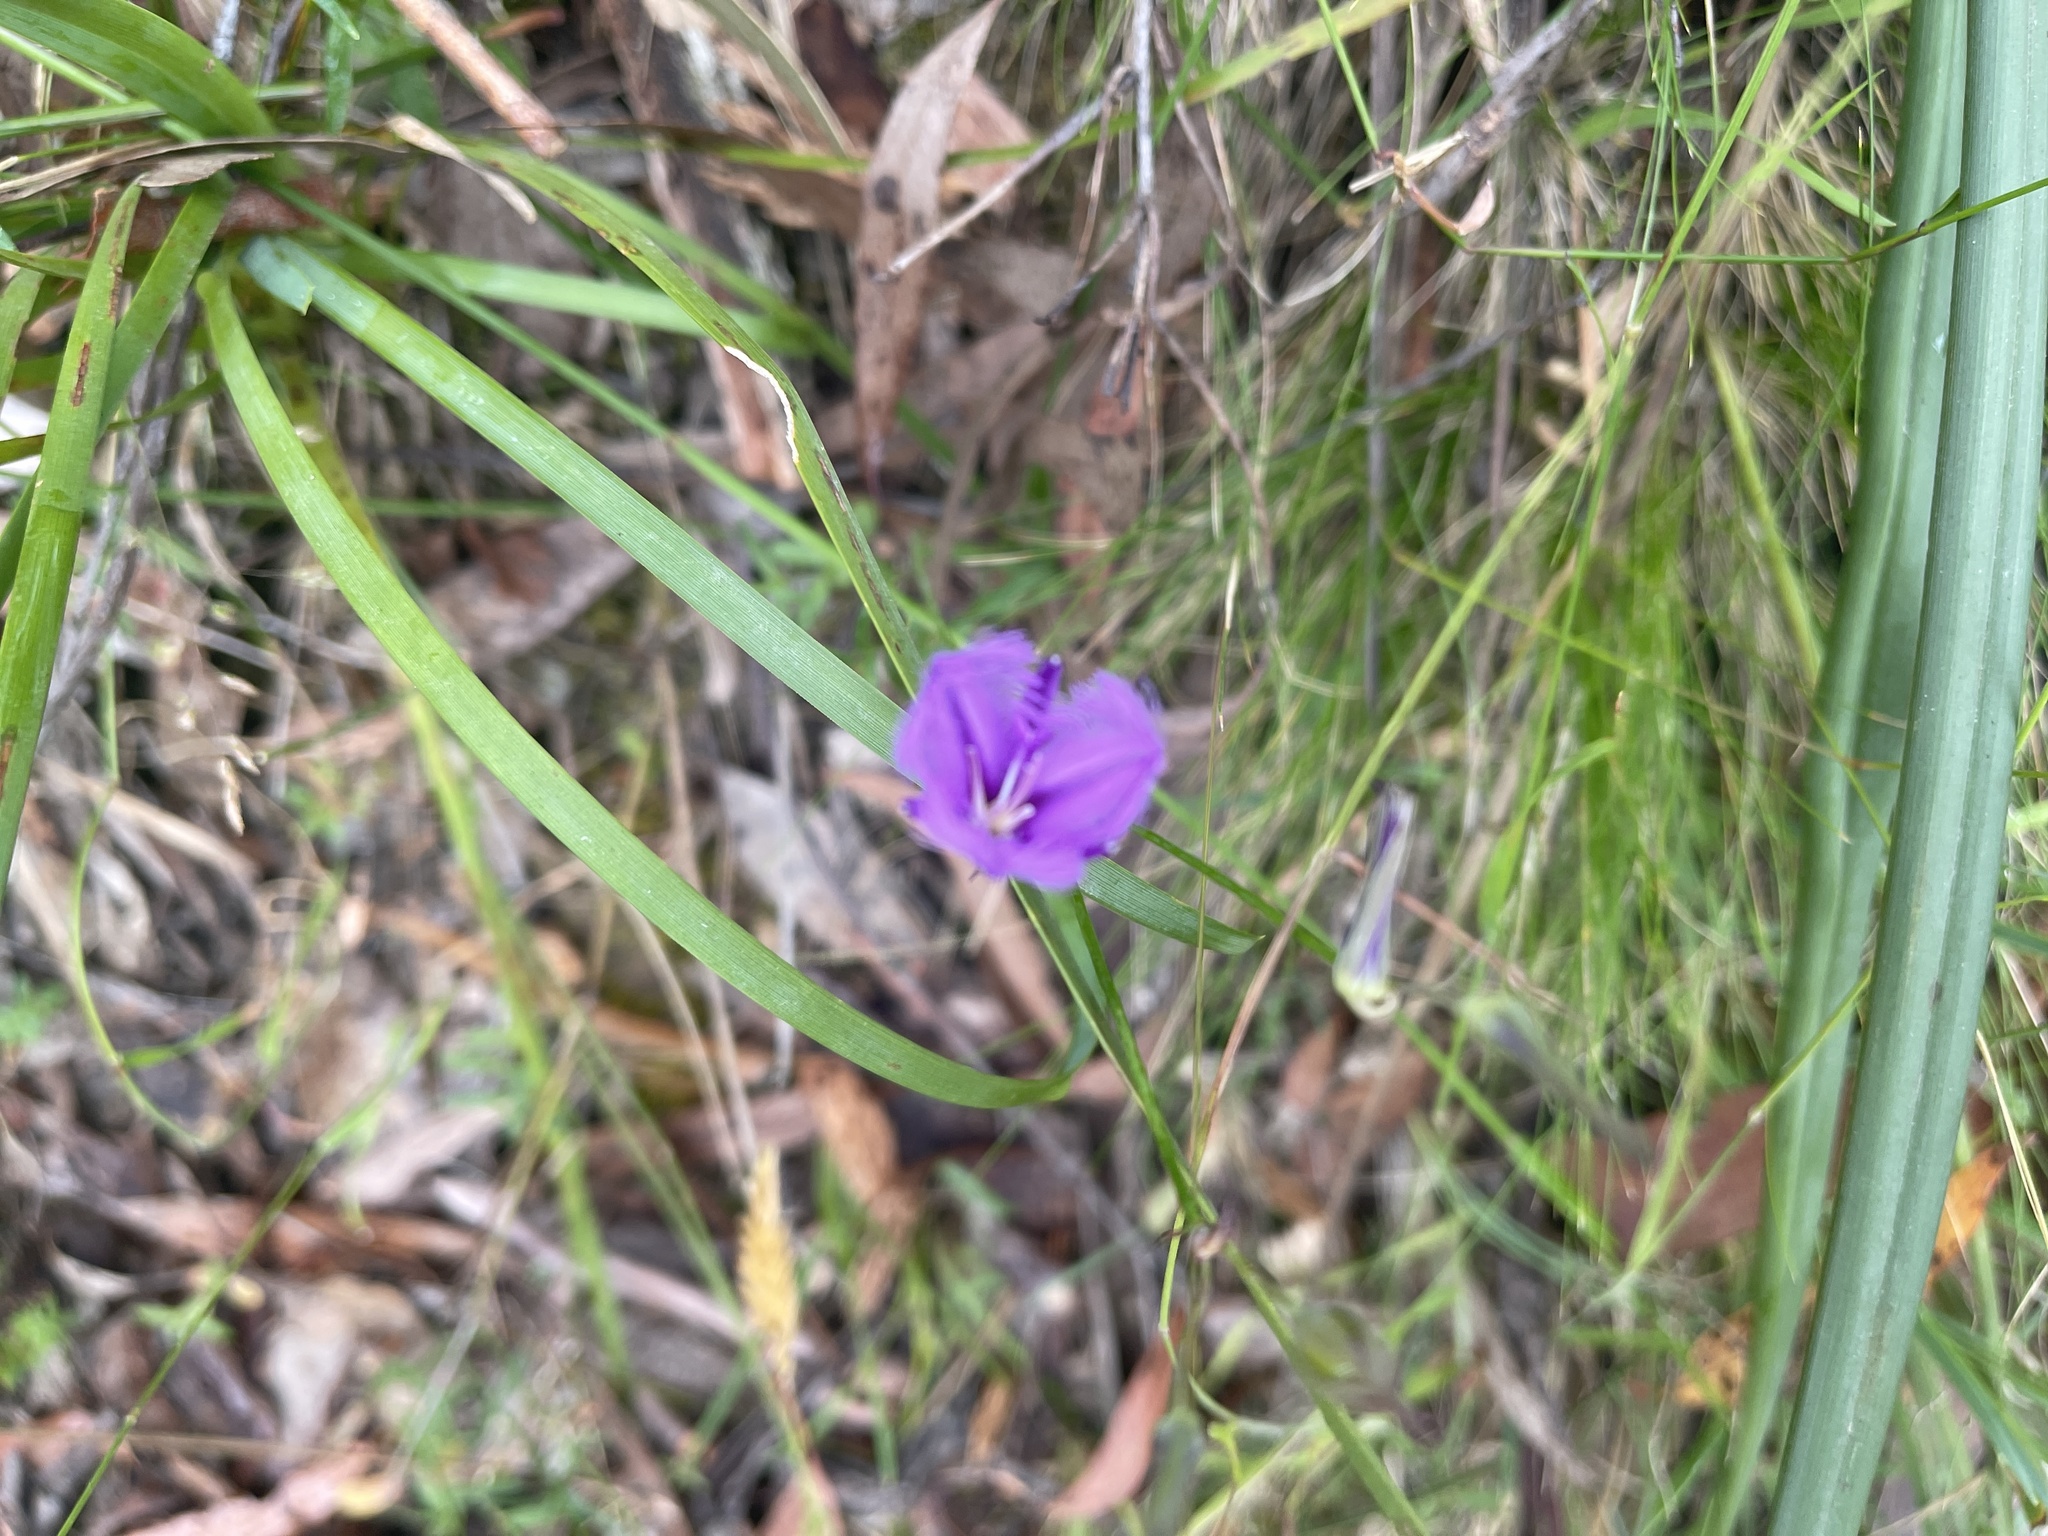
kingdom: Plantae
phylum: Tracheophyta
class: Liliopsida
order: Asparagales
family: Asparagaceae
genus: Thysanotus
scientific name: Thysanotus tuberosus
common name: Common fringed-lily
